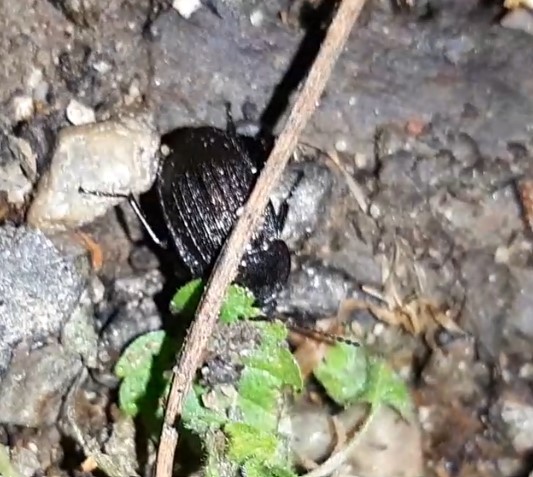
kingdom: Animalia
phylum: Arthropoda
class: Insecta
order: Coleoptera
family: Staphylinidae
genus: Silpha
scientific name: Silpha atrata
